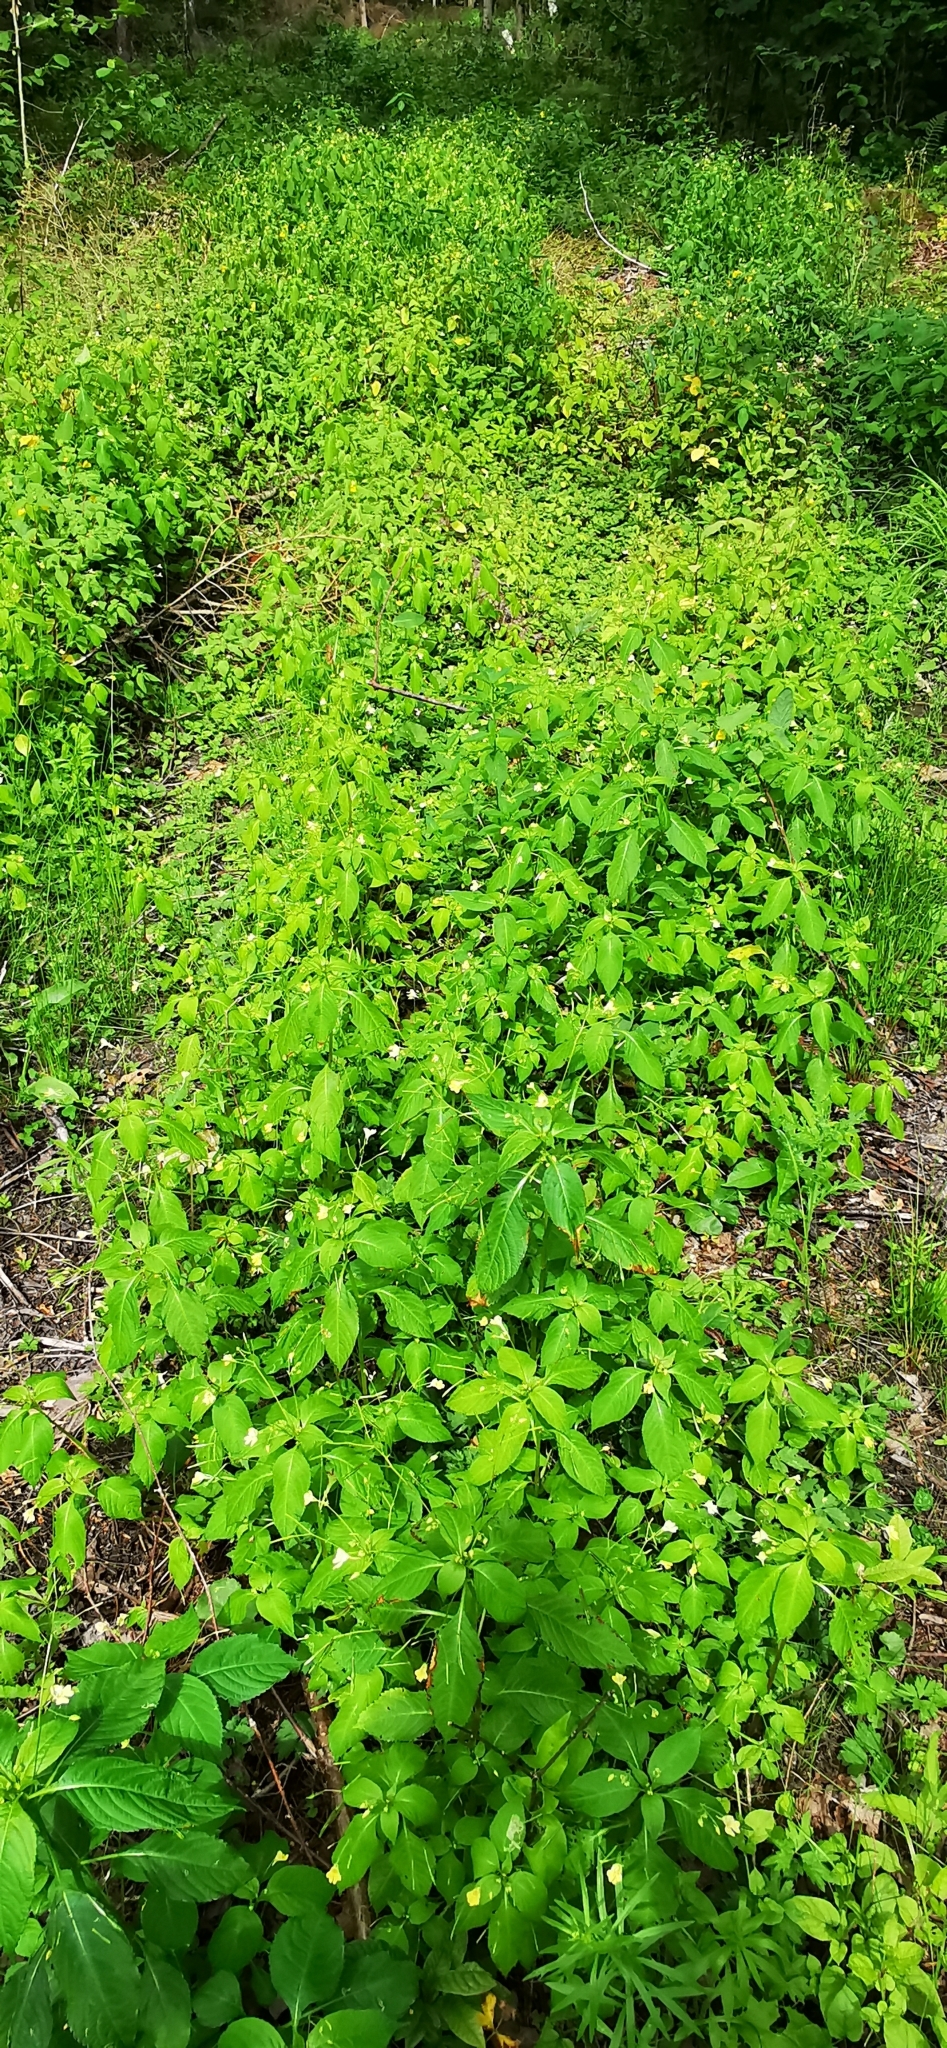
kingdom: Plantae
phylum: Tracheophyta
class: Magnoliopsida
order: Ericales
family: Balsaminaceae
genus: Impatiens
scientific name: Impatiens parviflora
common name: Small balsam
